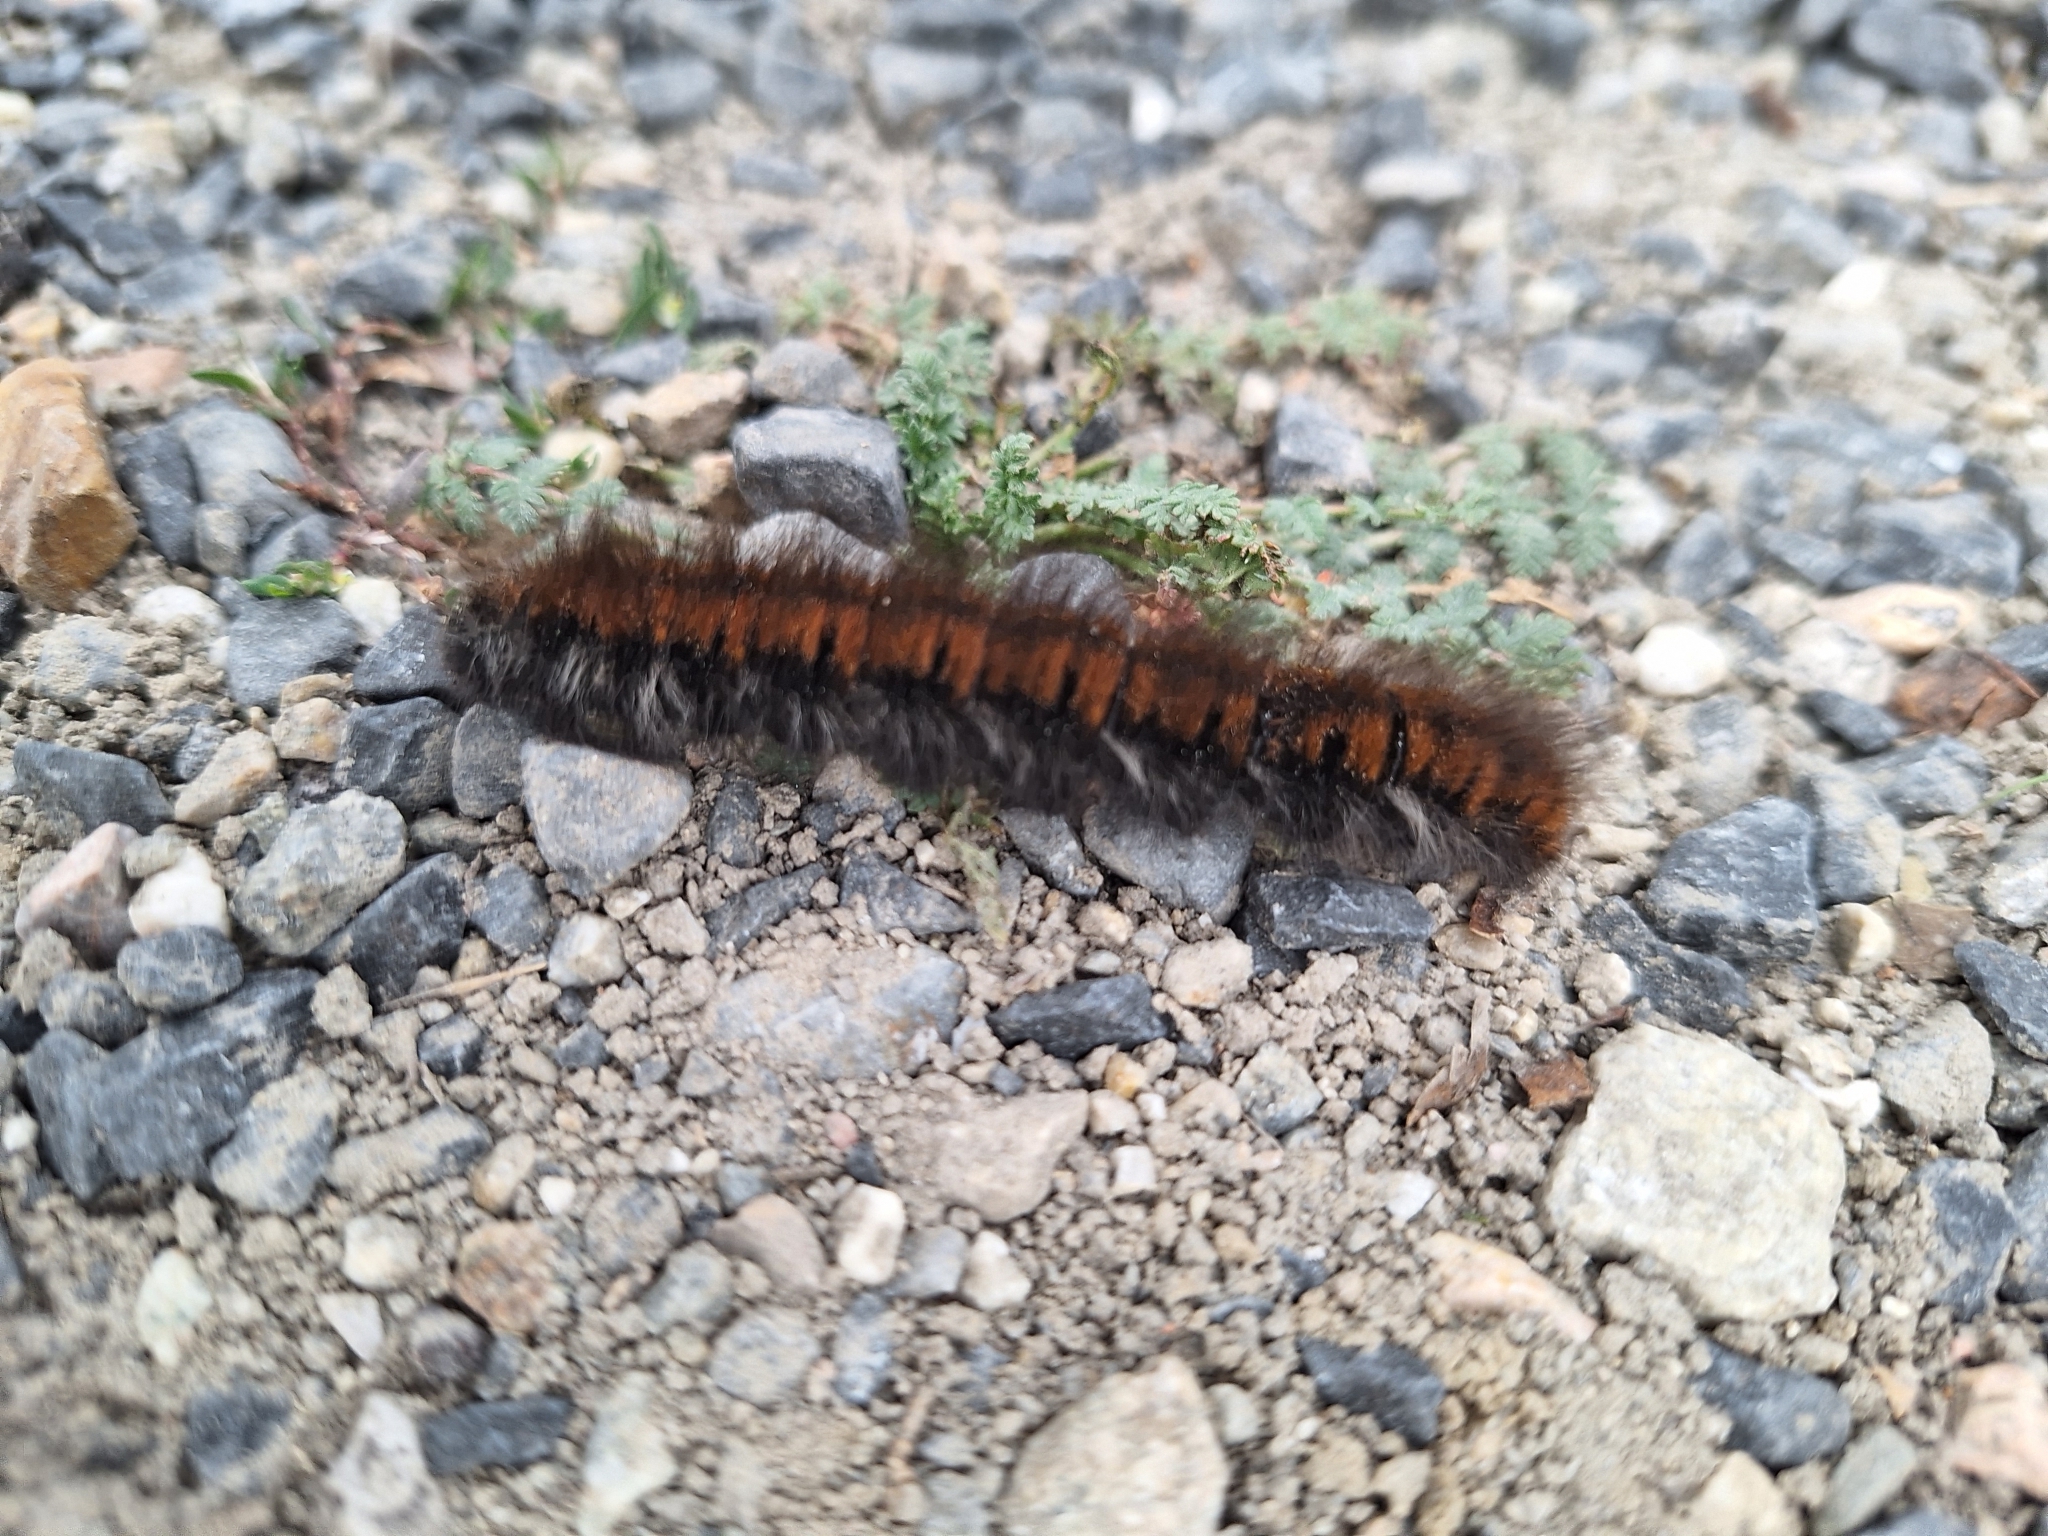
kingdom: Animalia
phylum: Arthropoda
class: Insecta
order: Lepidoptera
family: Lasiocampidae
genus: Macrothylacia
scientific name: Macrothylacia rubi
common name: Fox moth
